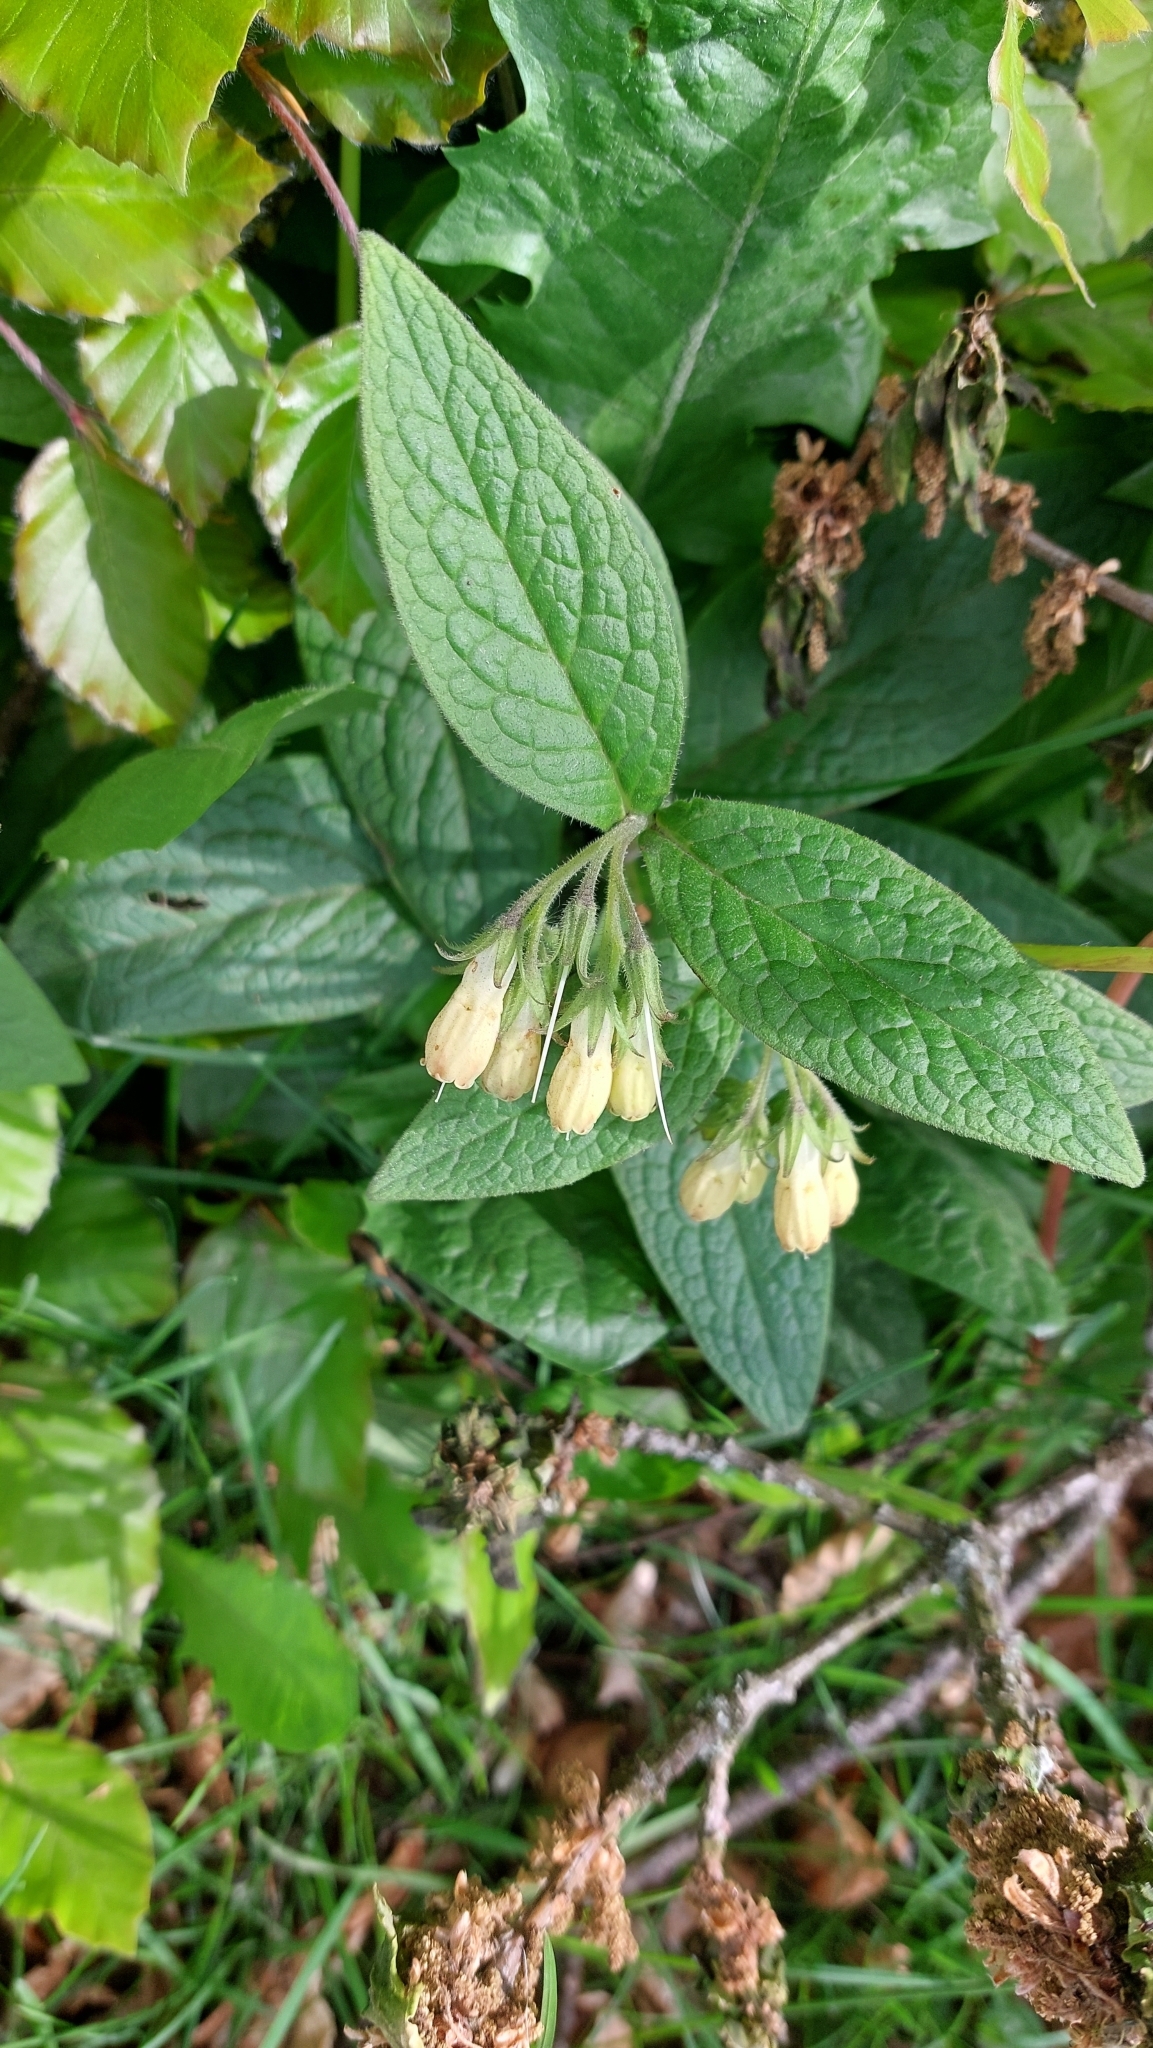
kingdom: Plantae
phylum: Tracheophyta
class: Magnoliopsida
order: Boraginales
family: Boraginaceae
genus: Symphytum
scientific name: Symphytum tuberosum
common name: Tuberous comfrey
